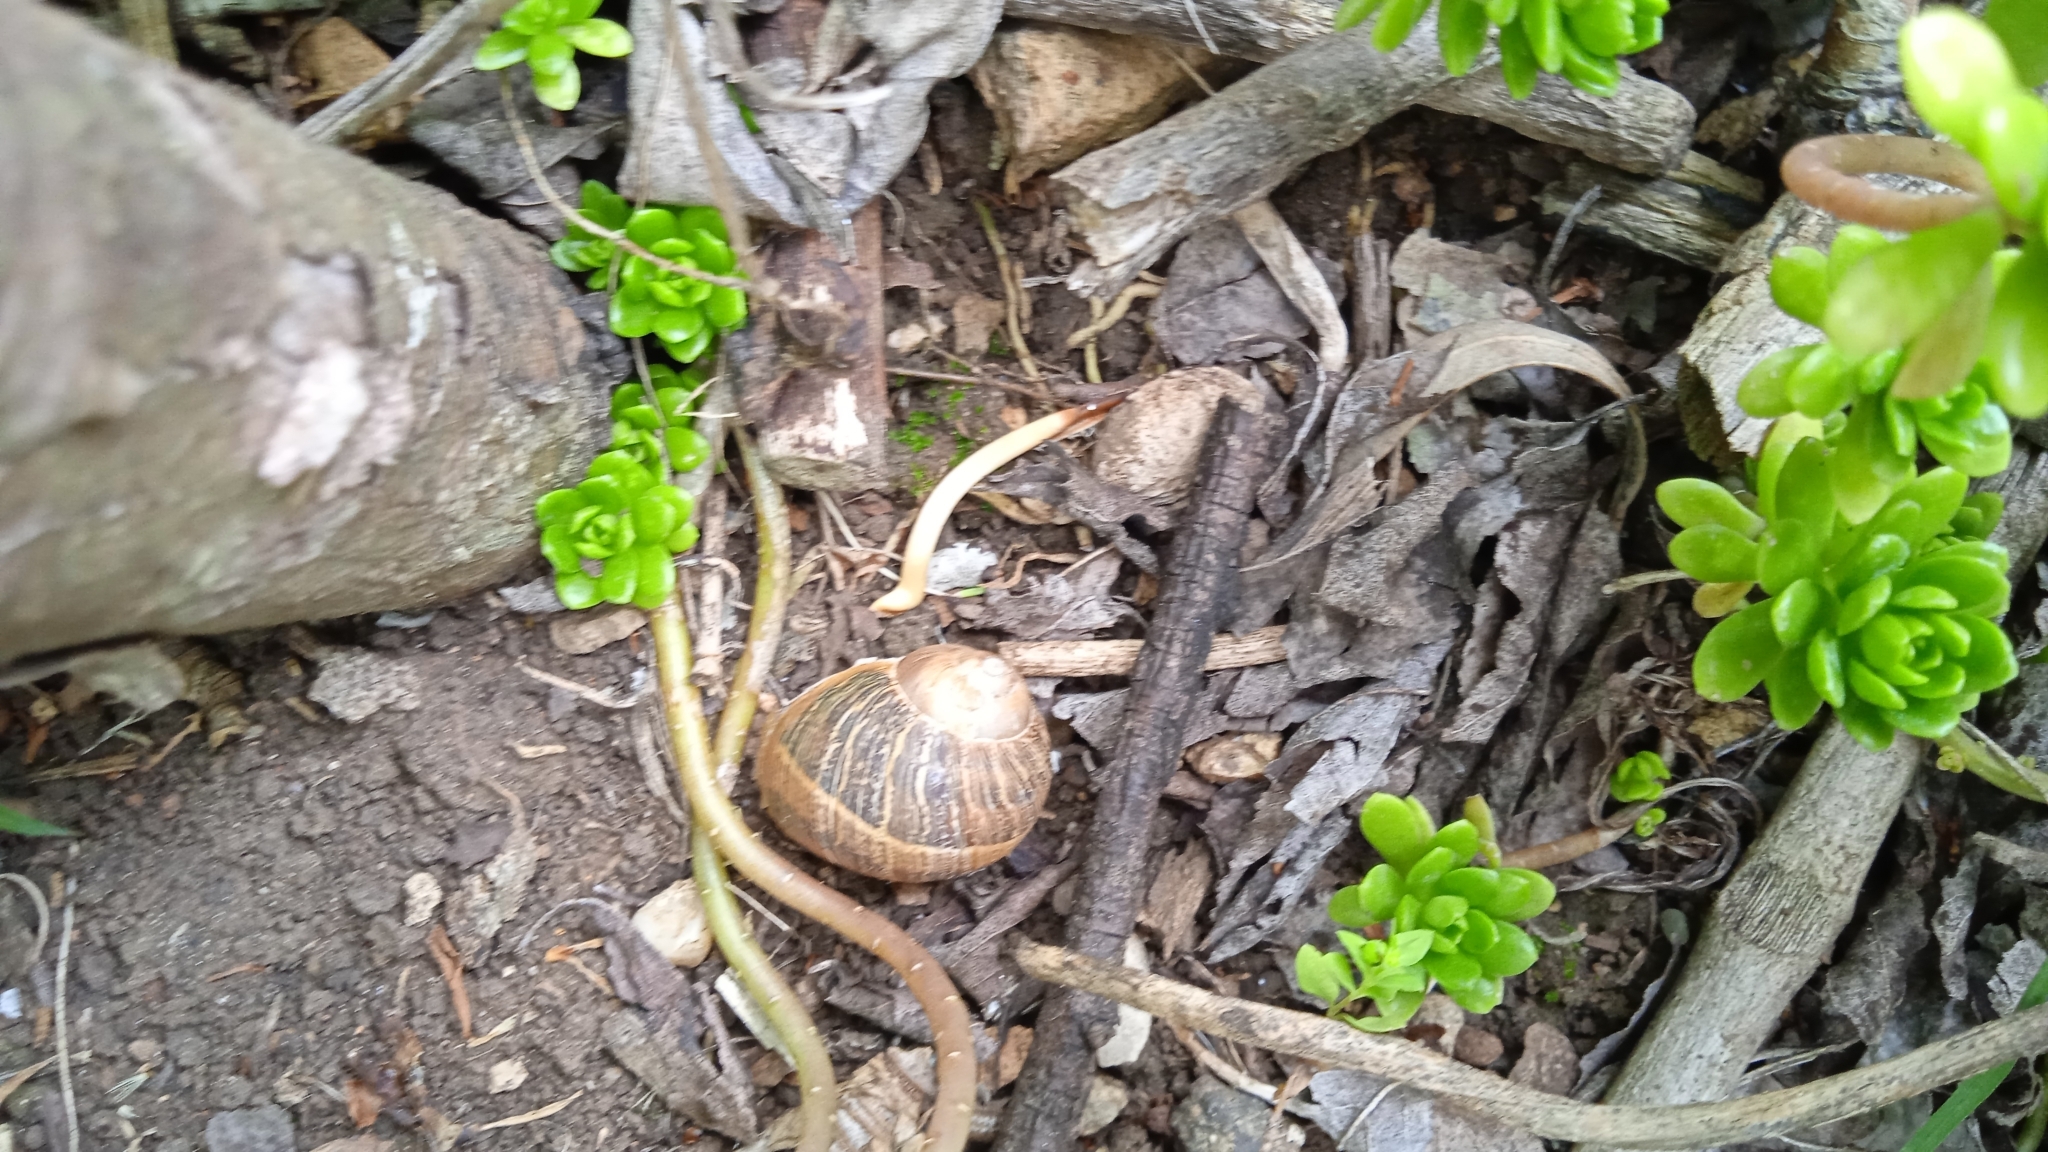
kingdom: Animalia
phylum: Mollusca
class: Gastropoda
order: Stylommatophora
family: Helicidae
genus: Cornu
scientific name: Cornu aspersum
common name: Brown garden snail
